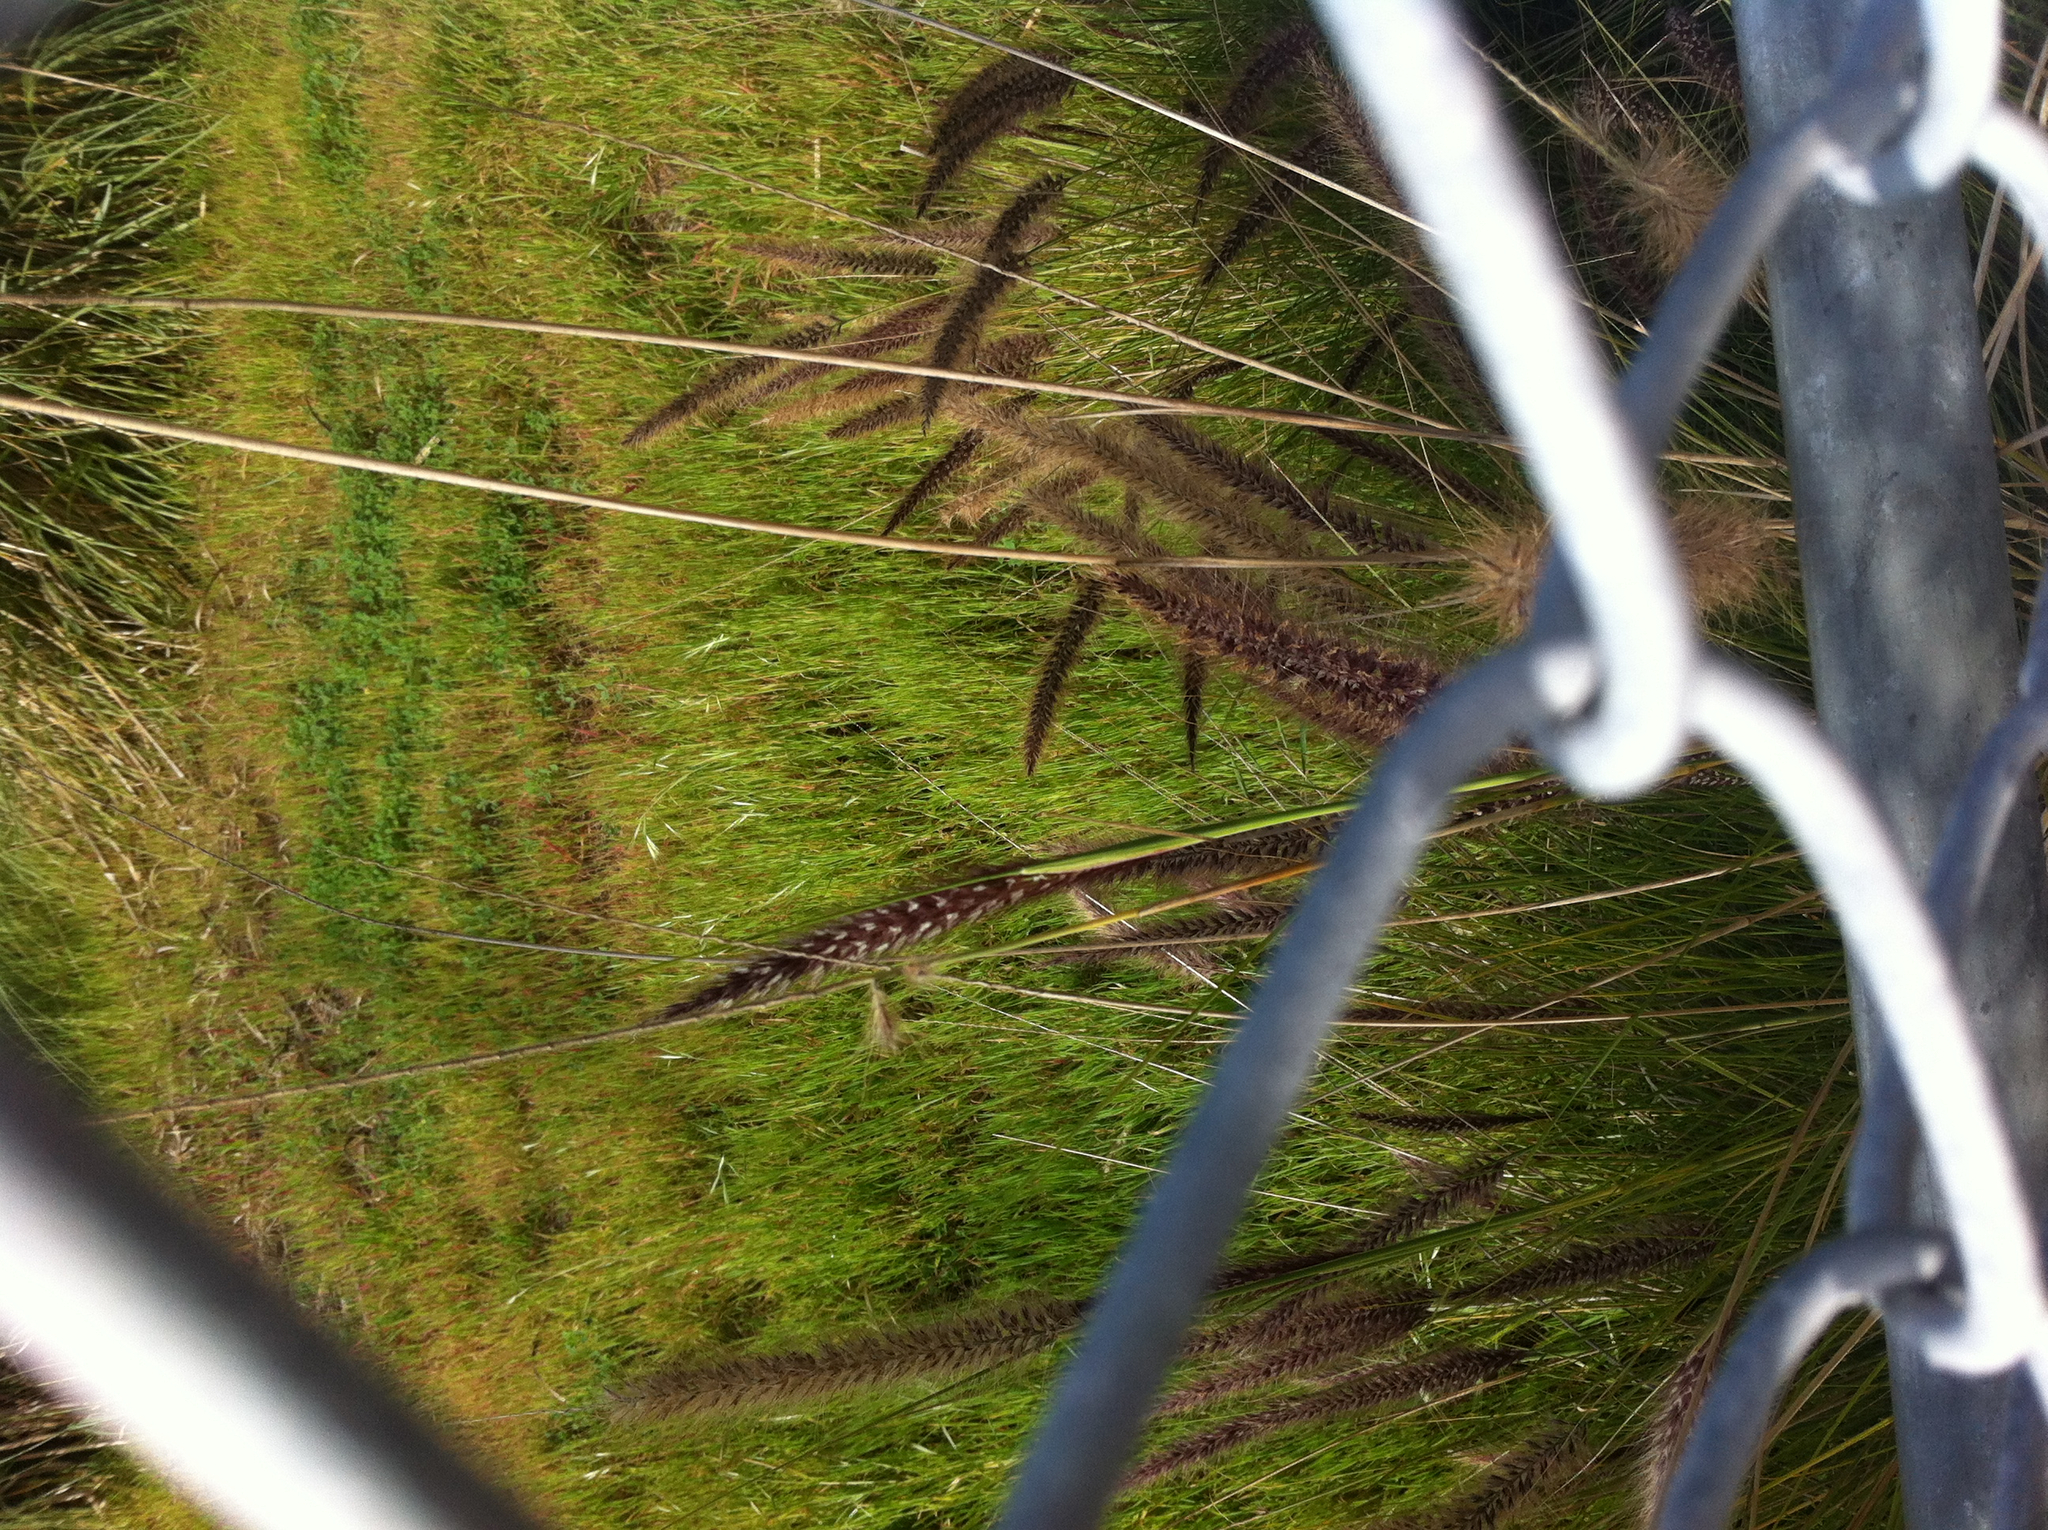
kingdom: Plantae
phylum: Tracheophyta
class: Liliopsida
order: Poales
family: Poaceae
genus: Cenchrus
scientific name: Cenchrus setaceus
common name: Crimson fountaingrass
